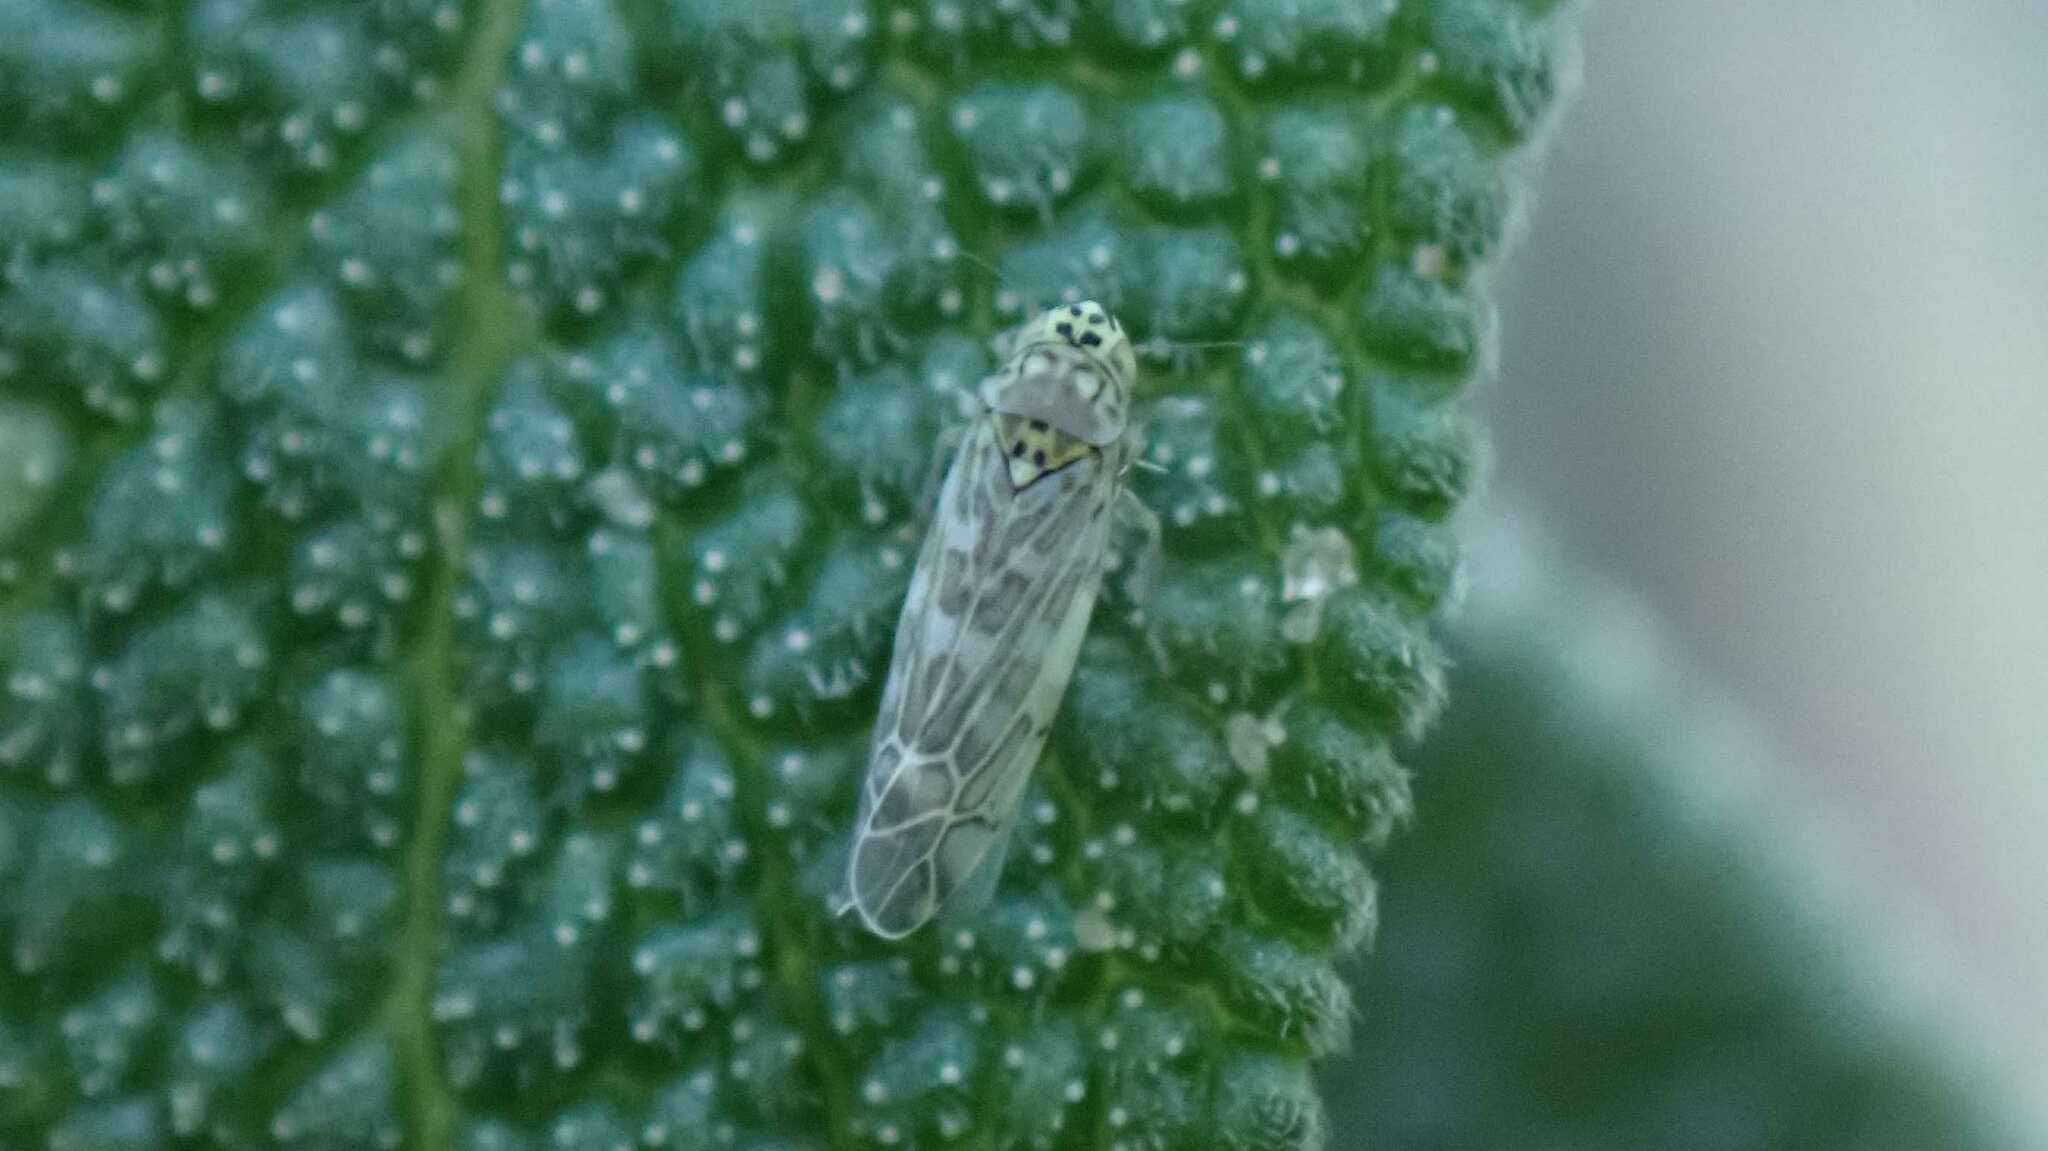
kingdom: Animalia
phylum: Arthropoda
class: Insecta
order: Hemiptera
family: Cicadellidae
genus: Eupteryx
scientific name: Eupteryx decemnotata
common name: Ligurian leafhopper
